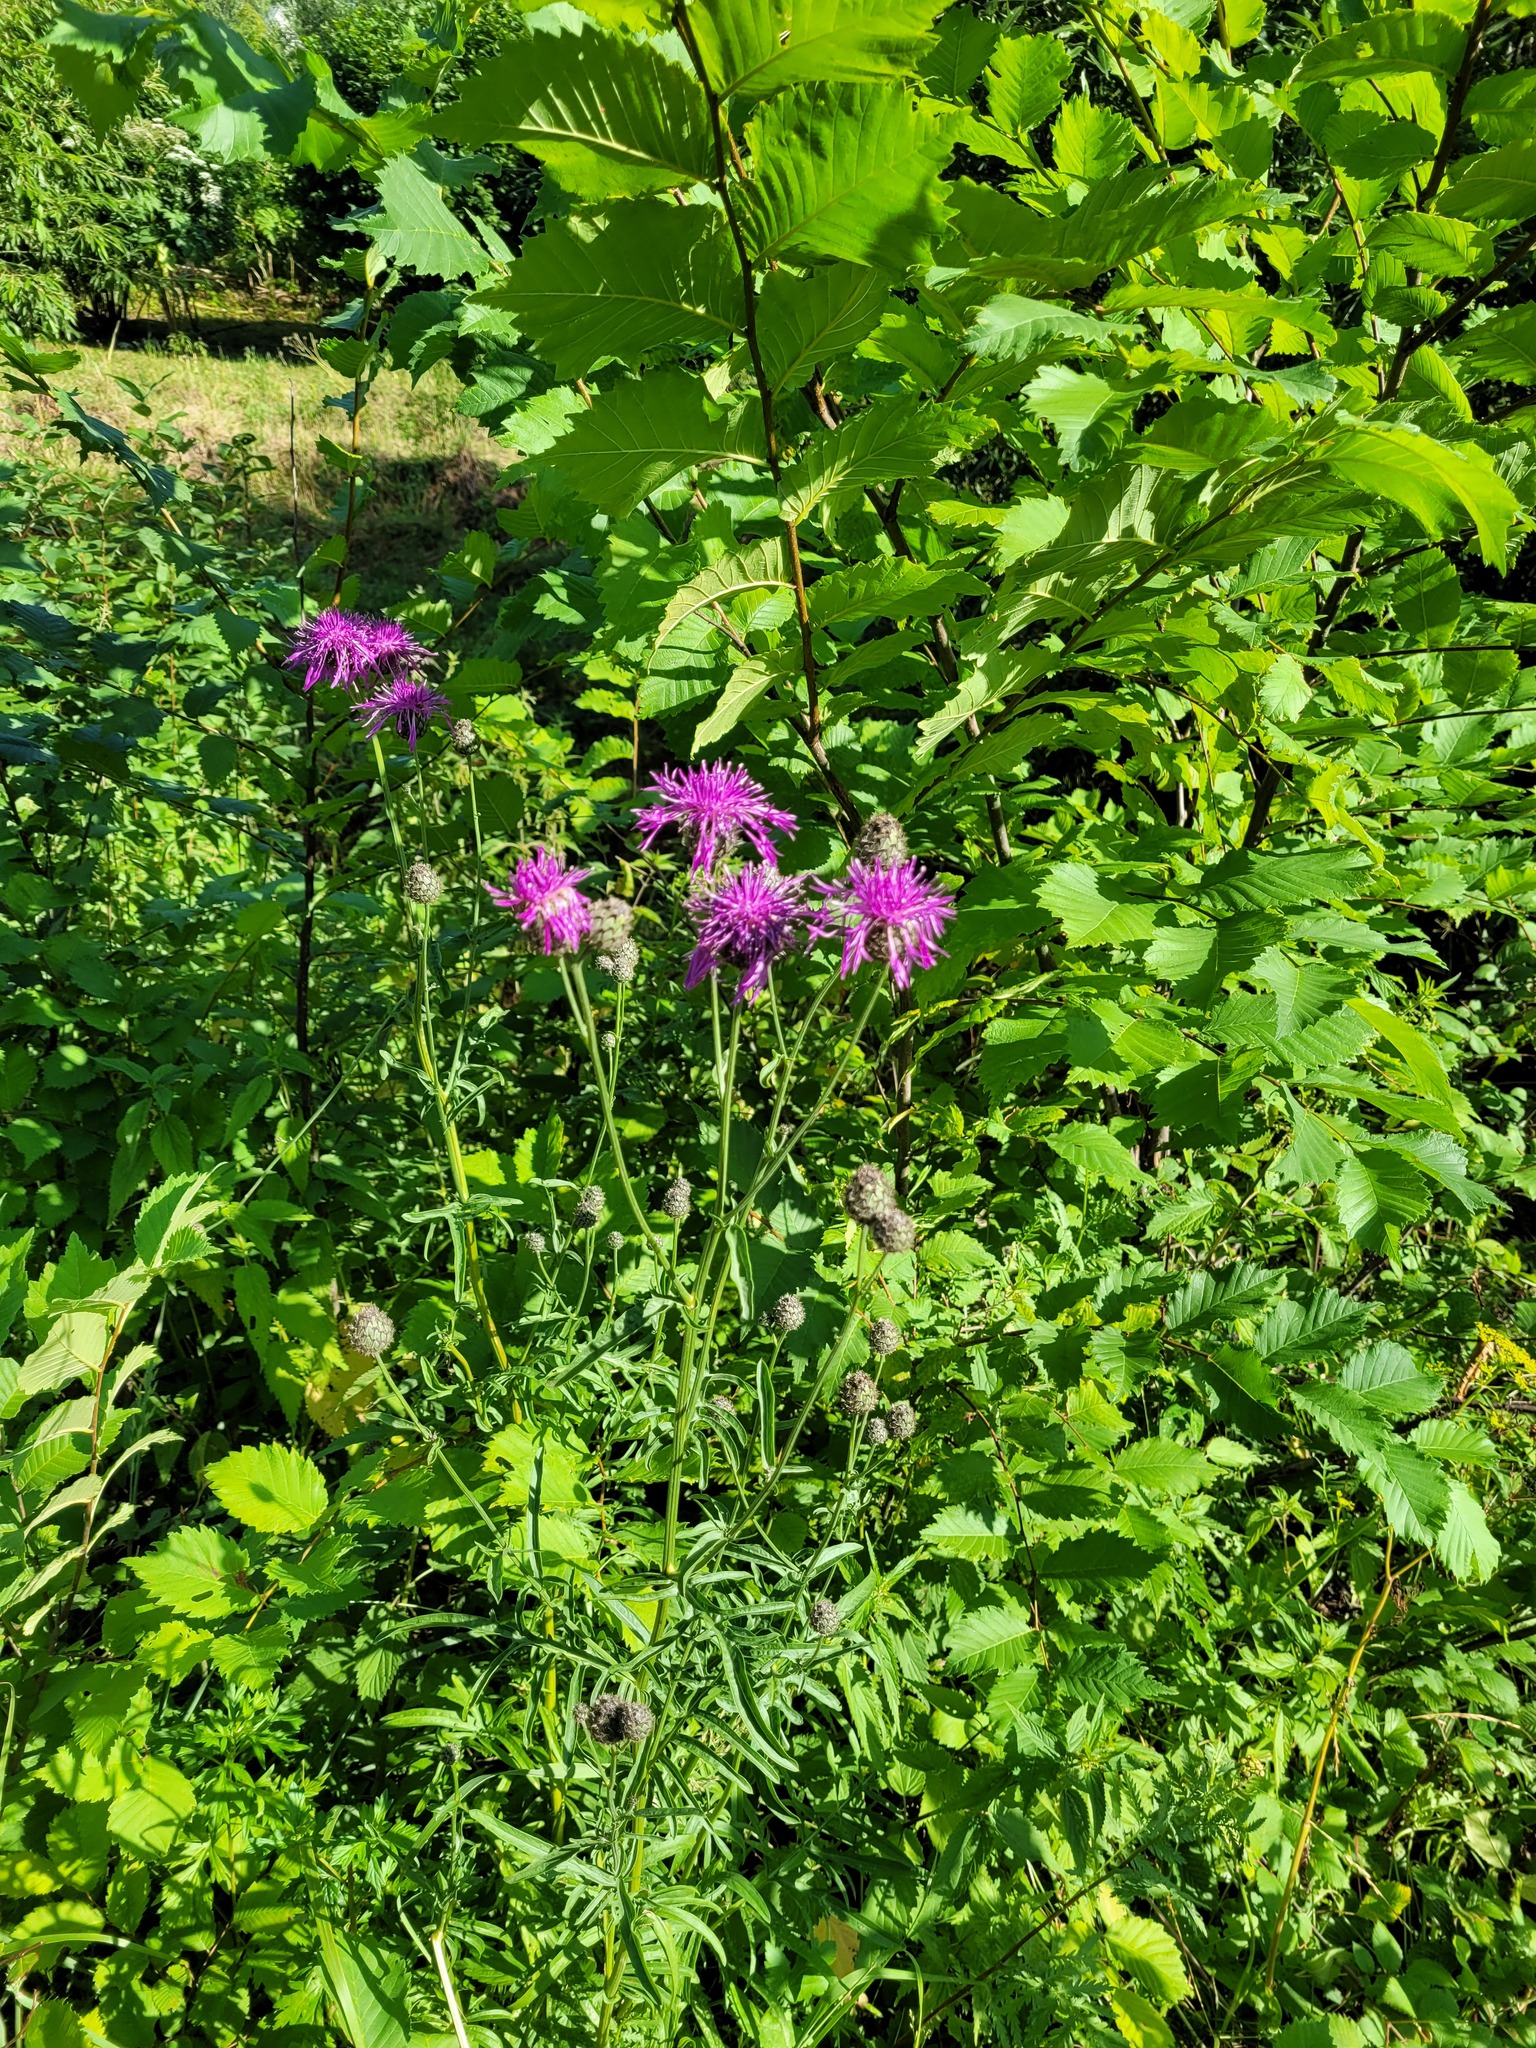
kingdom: Plantae
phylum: Tracheophyta
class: Magnoliopsida
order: Asterales
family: Asteraceae
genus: Centaurea
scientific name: Centaurea scabiosa
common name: Greater knapweed
